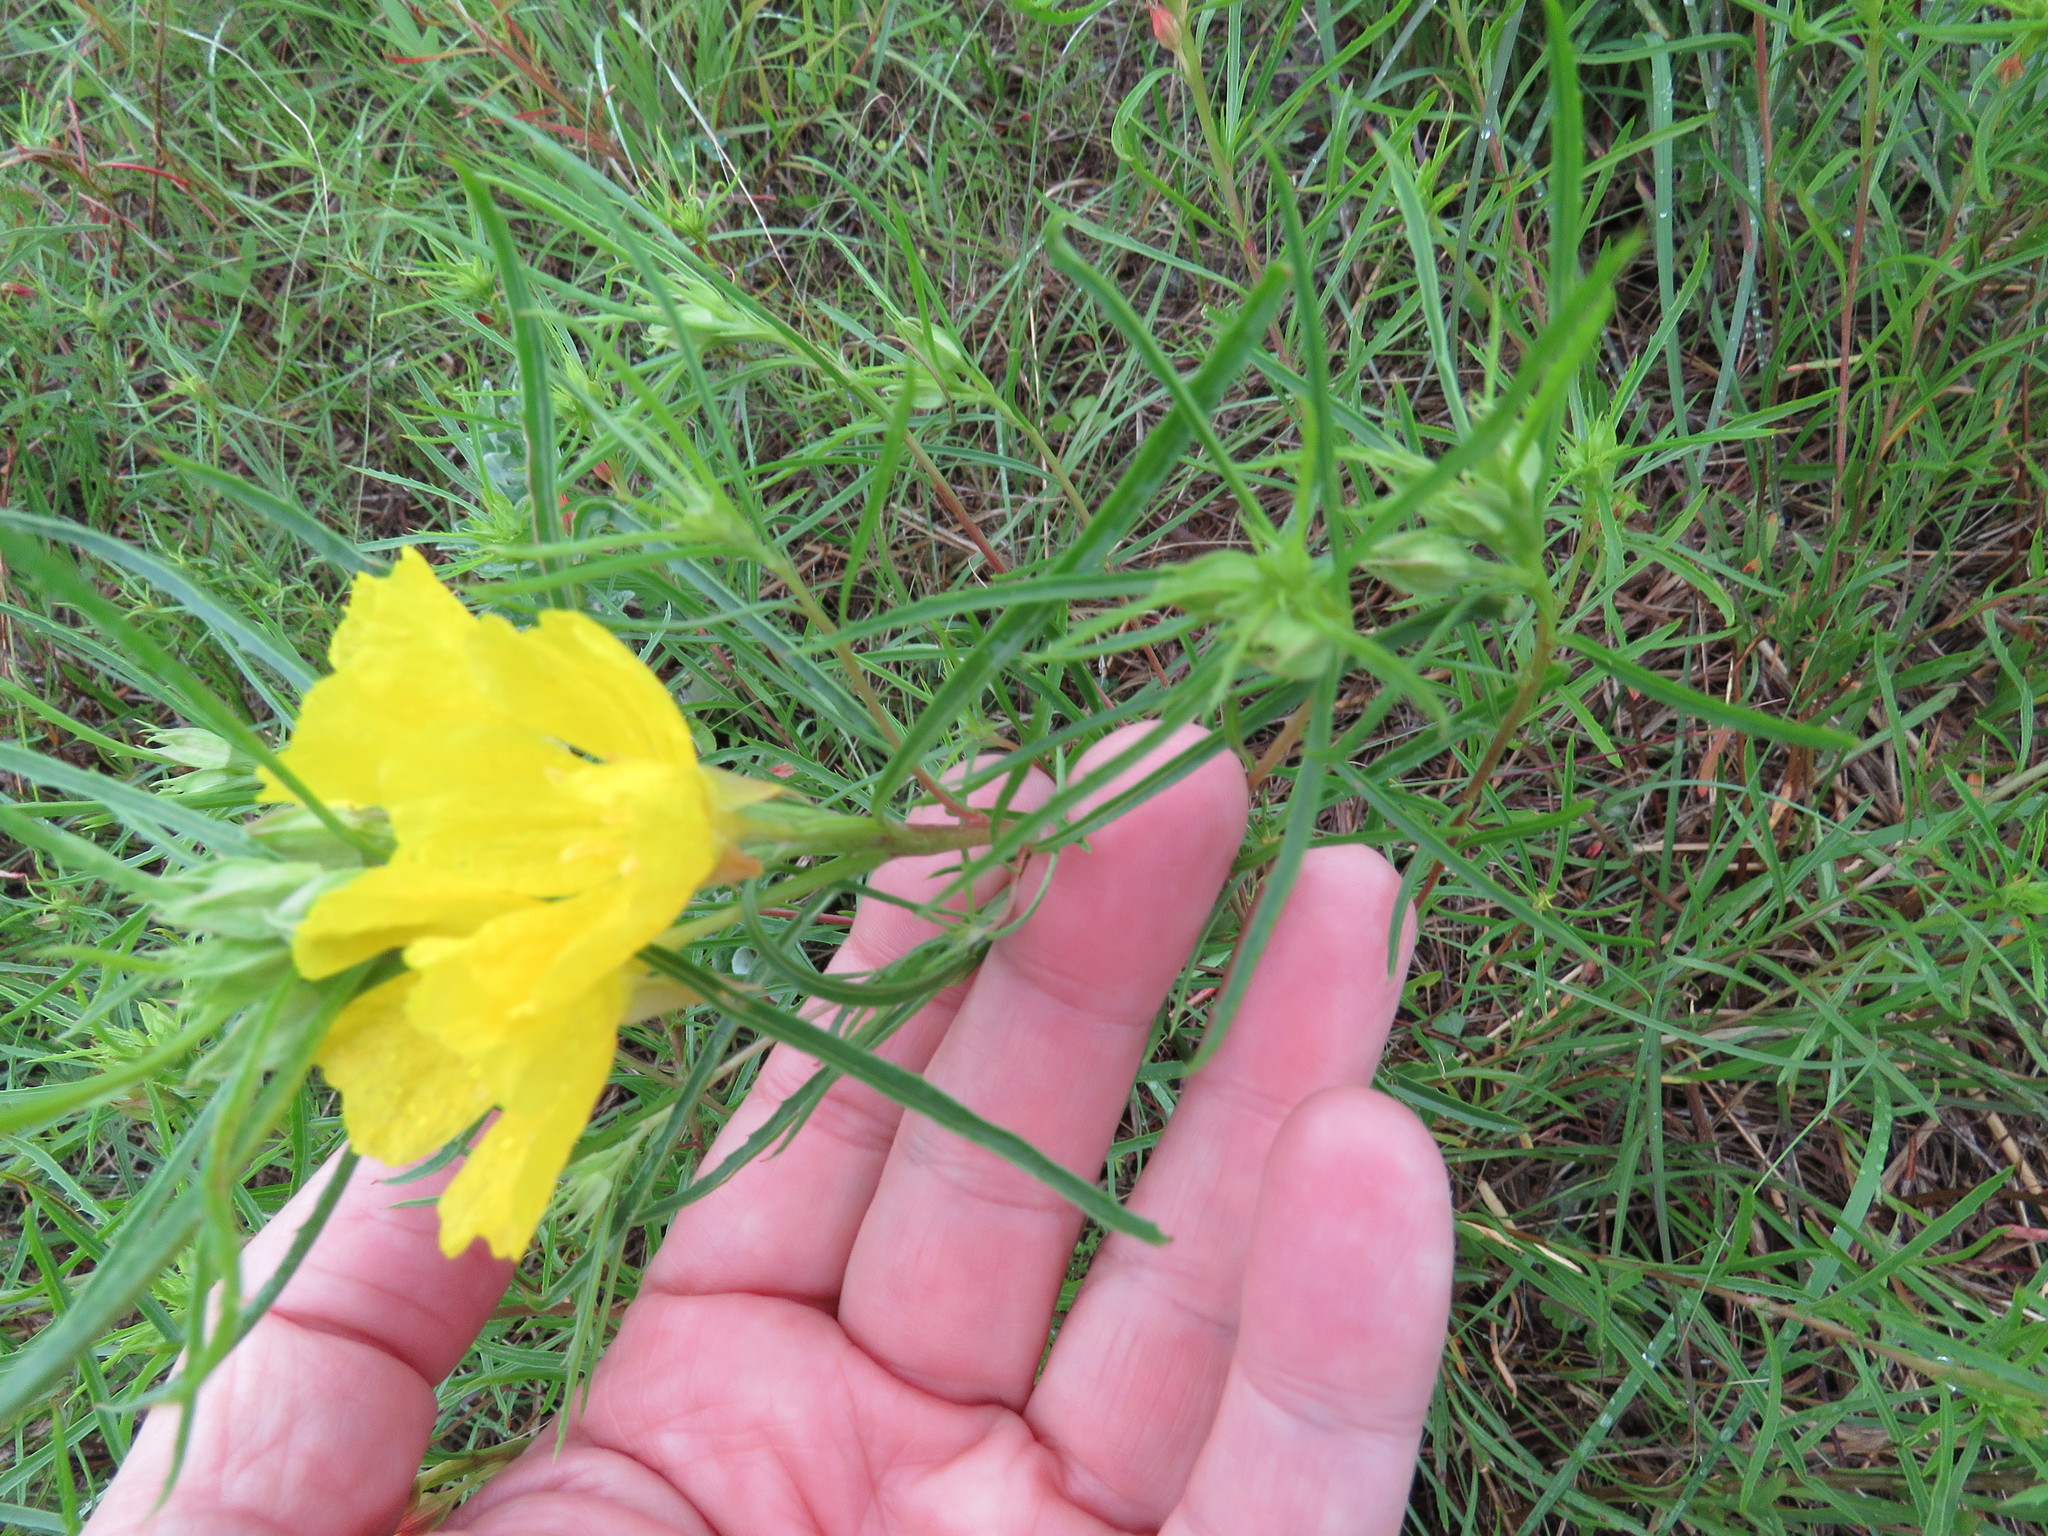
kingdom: Plantae
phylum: Tracheophyta
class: Magnoliopsida
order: Myrtales
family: Onagraceae
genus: Oenothera
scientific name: Oenothera
